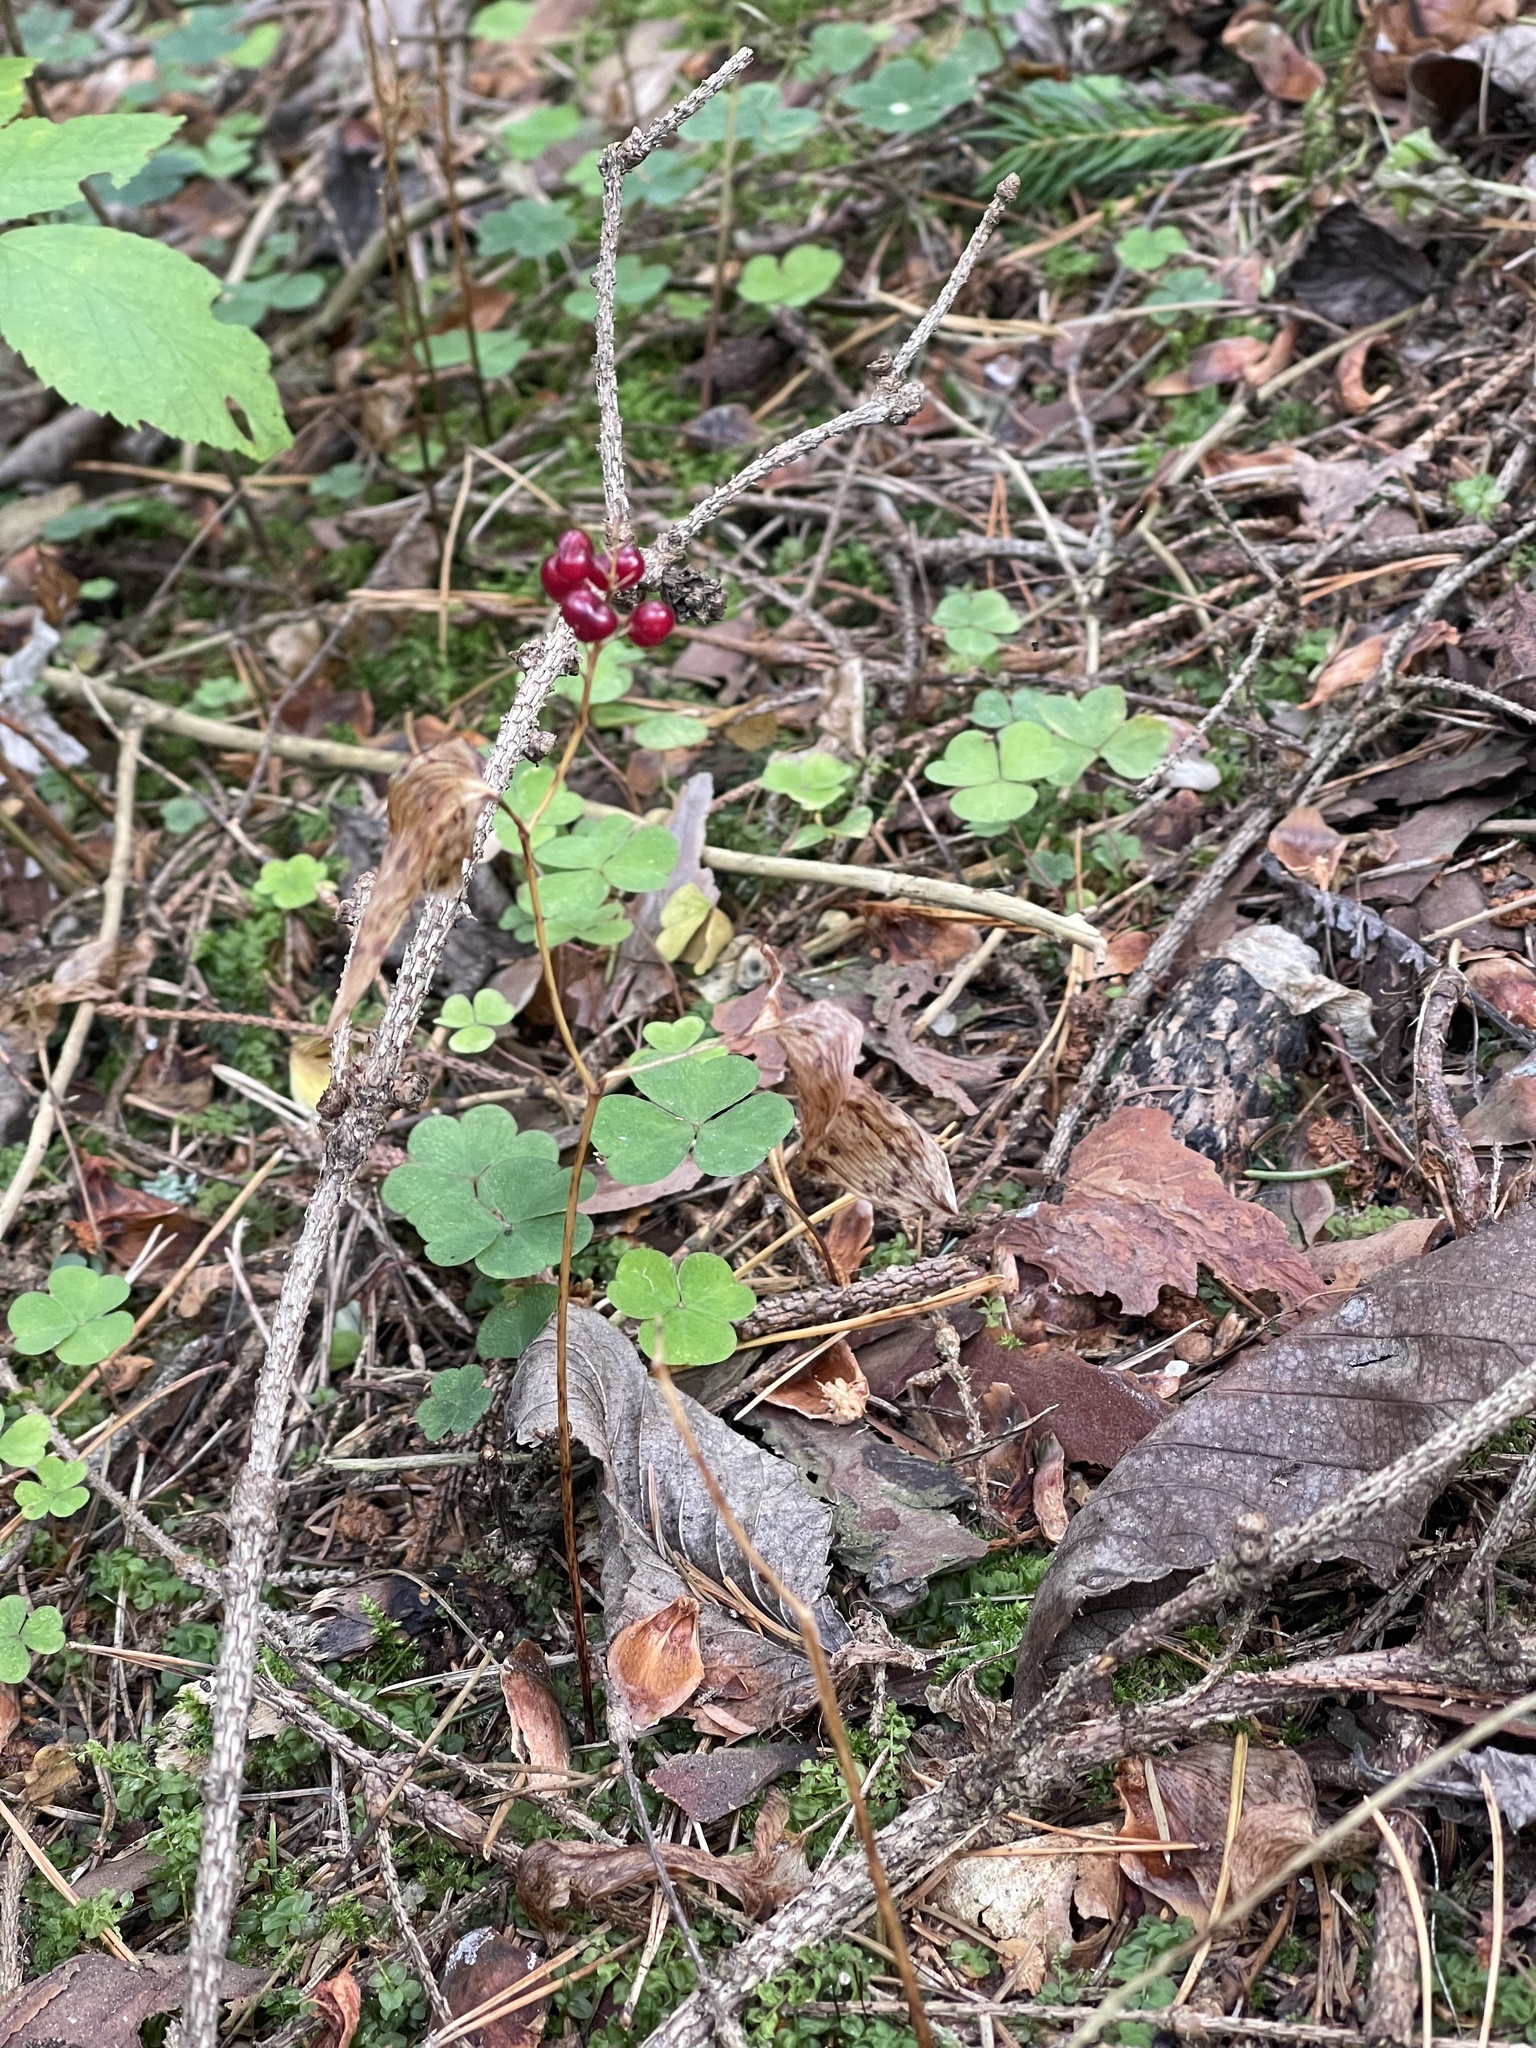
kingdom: Plantae
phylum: Tracheophyta
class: Liliopsida
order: Asparagales
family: Asparagaceae
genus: Maianthemum
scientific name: Maianthemum bifolium
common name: May lily
